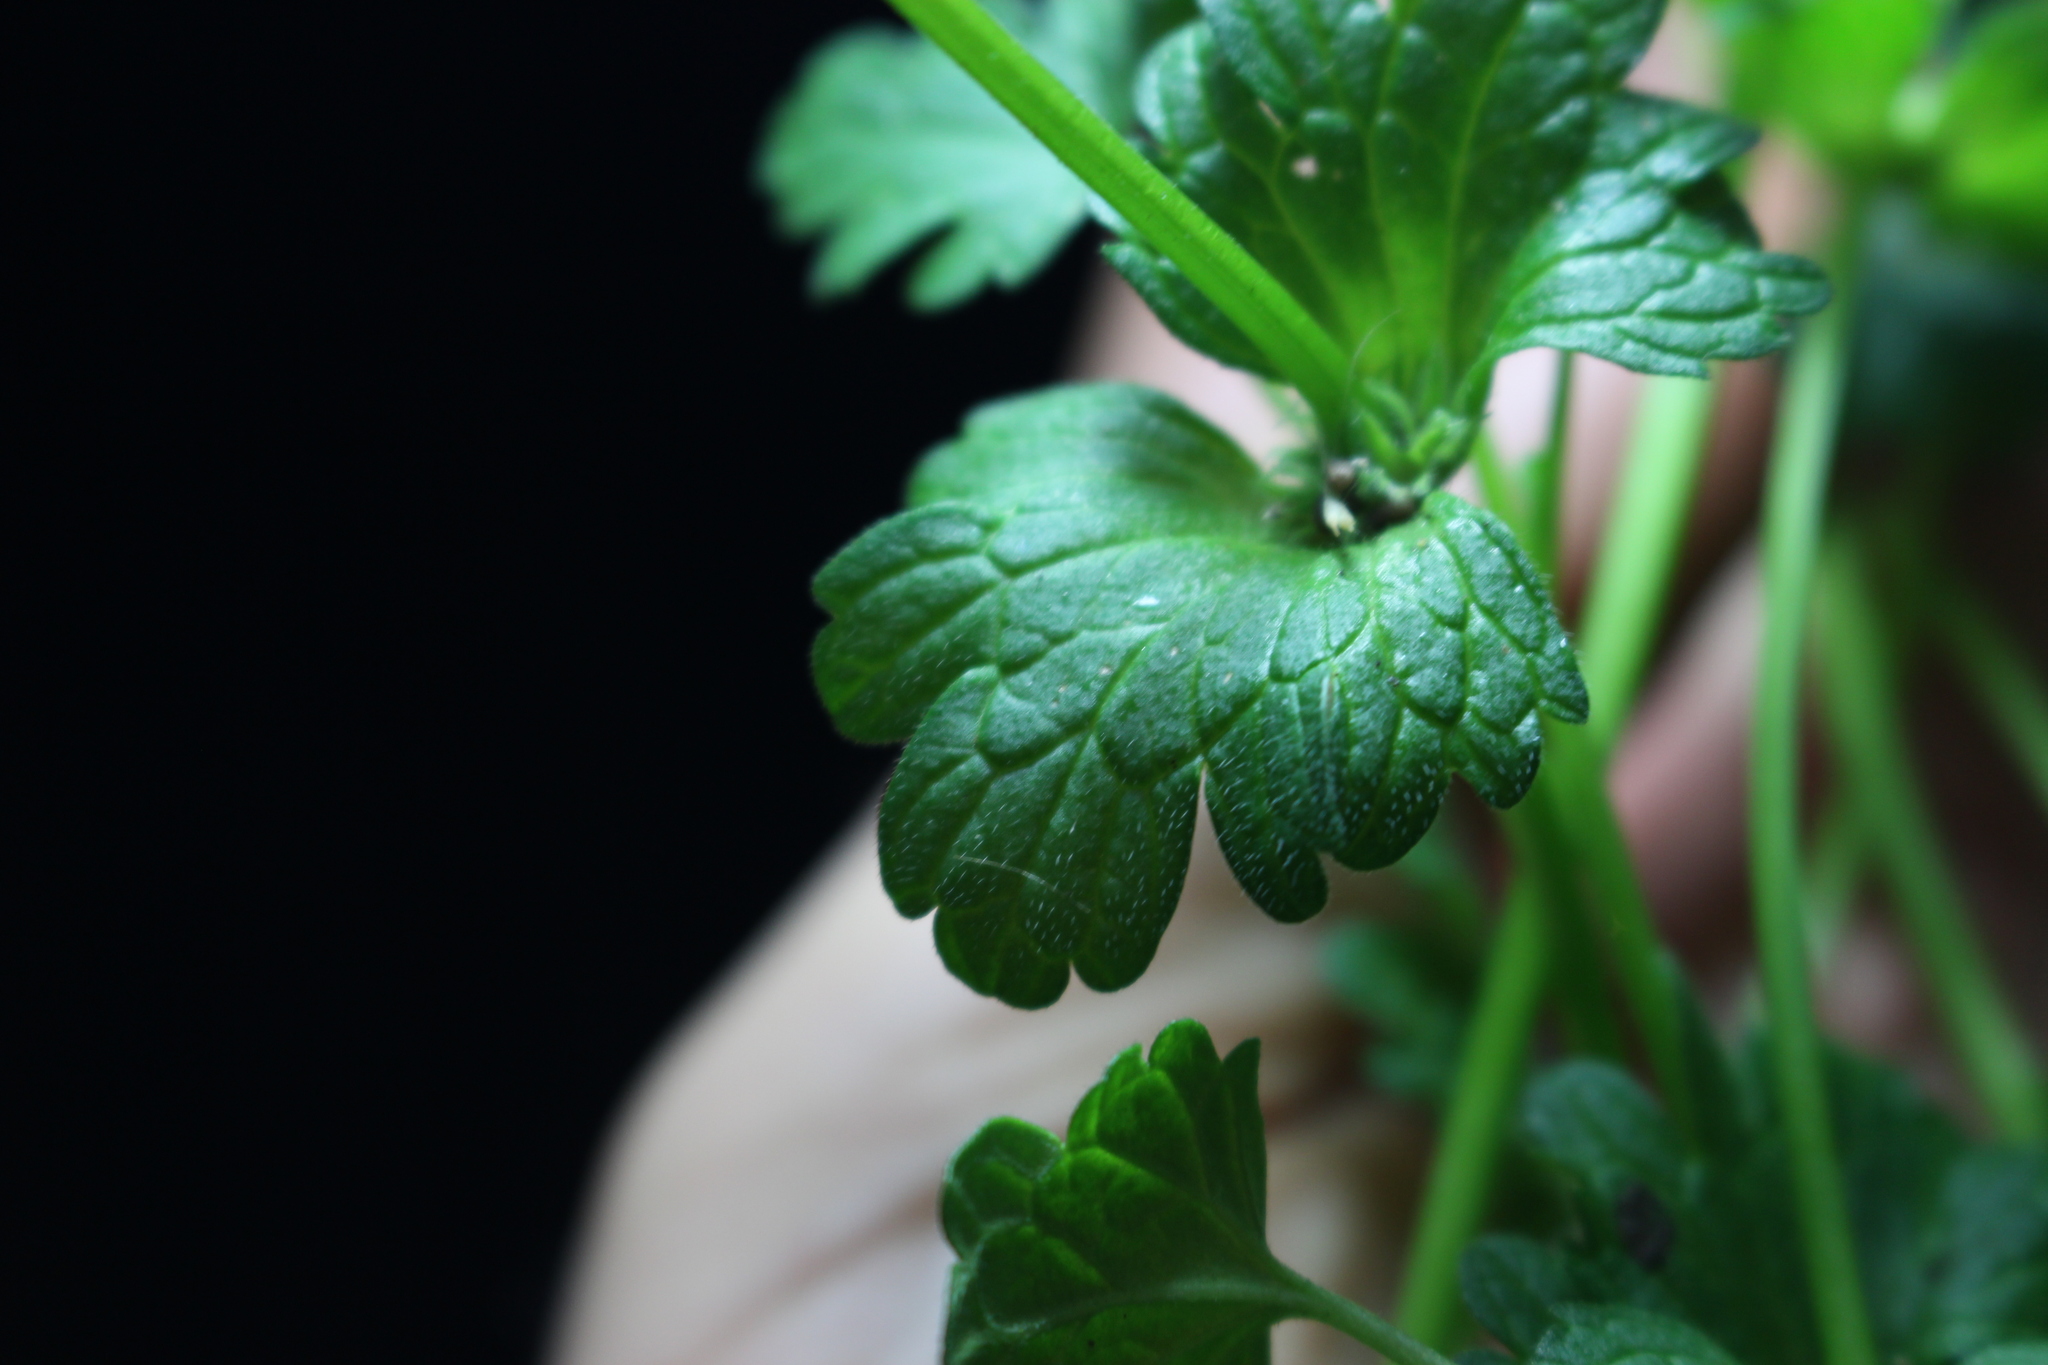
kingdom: Plantae
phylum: Tracheophyta
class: Magnoliopsida
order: Lamiales
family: Lamiaceae
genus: Lamium
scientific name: Lamium amplexicaule
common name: Henbit dead-nettle
